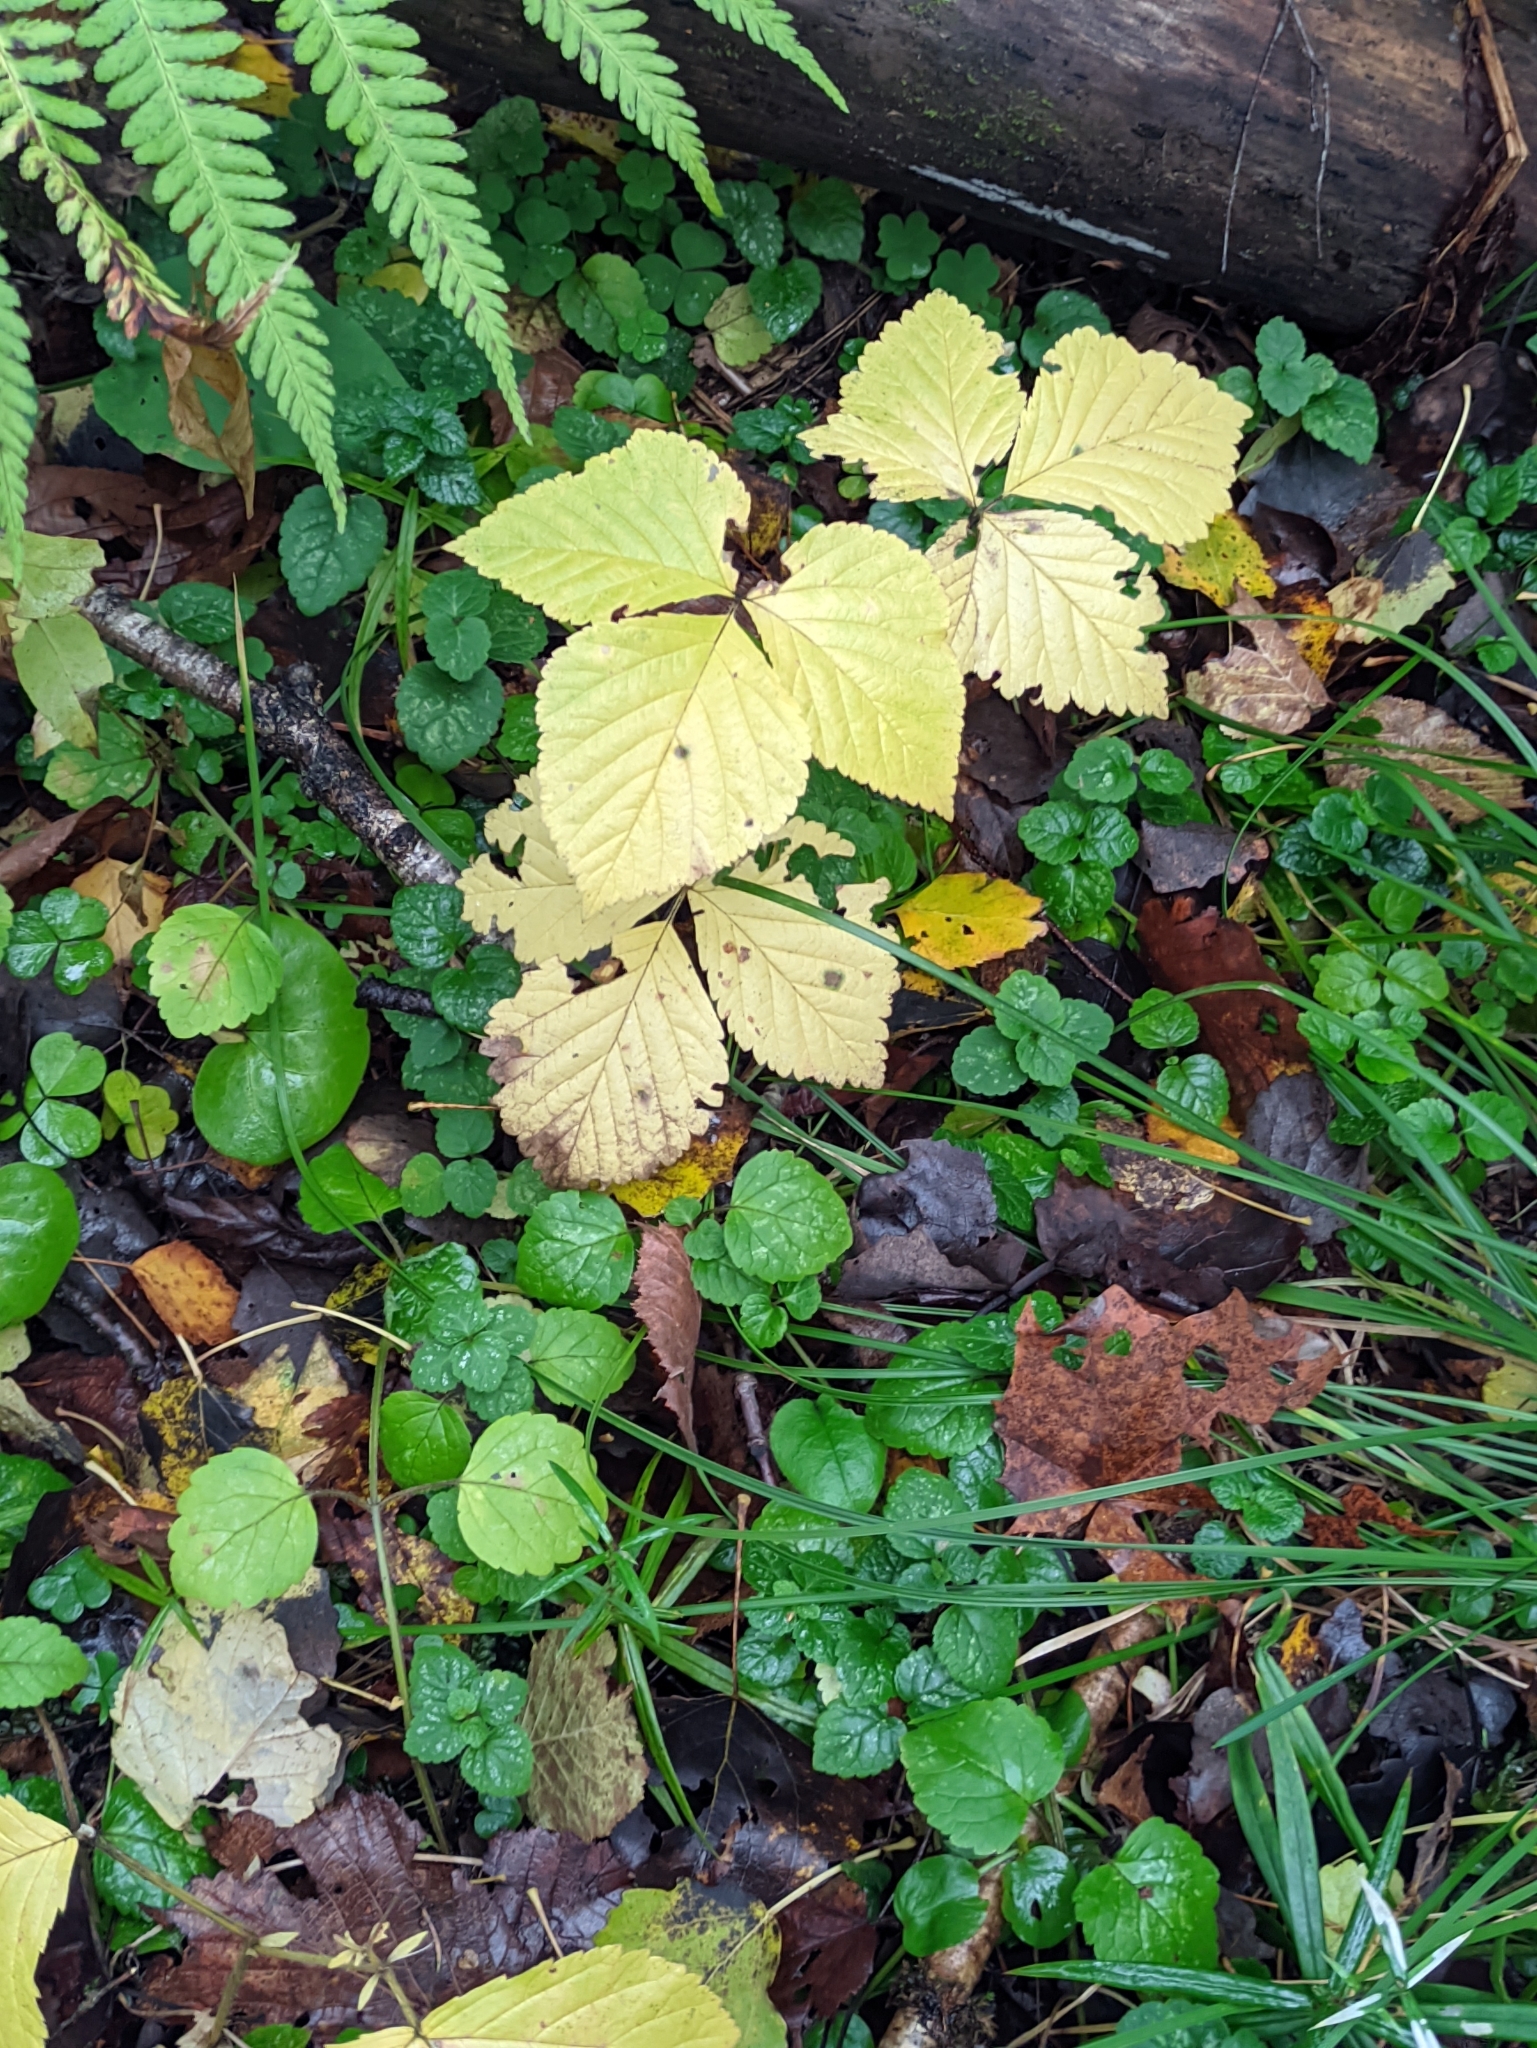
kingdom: Plantae
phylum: Tracheophyta
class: Magnoliopsida
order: Rosales
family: Rosaceae
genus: Rubus
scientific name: Rubus saxatilis
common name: Stone bramble
